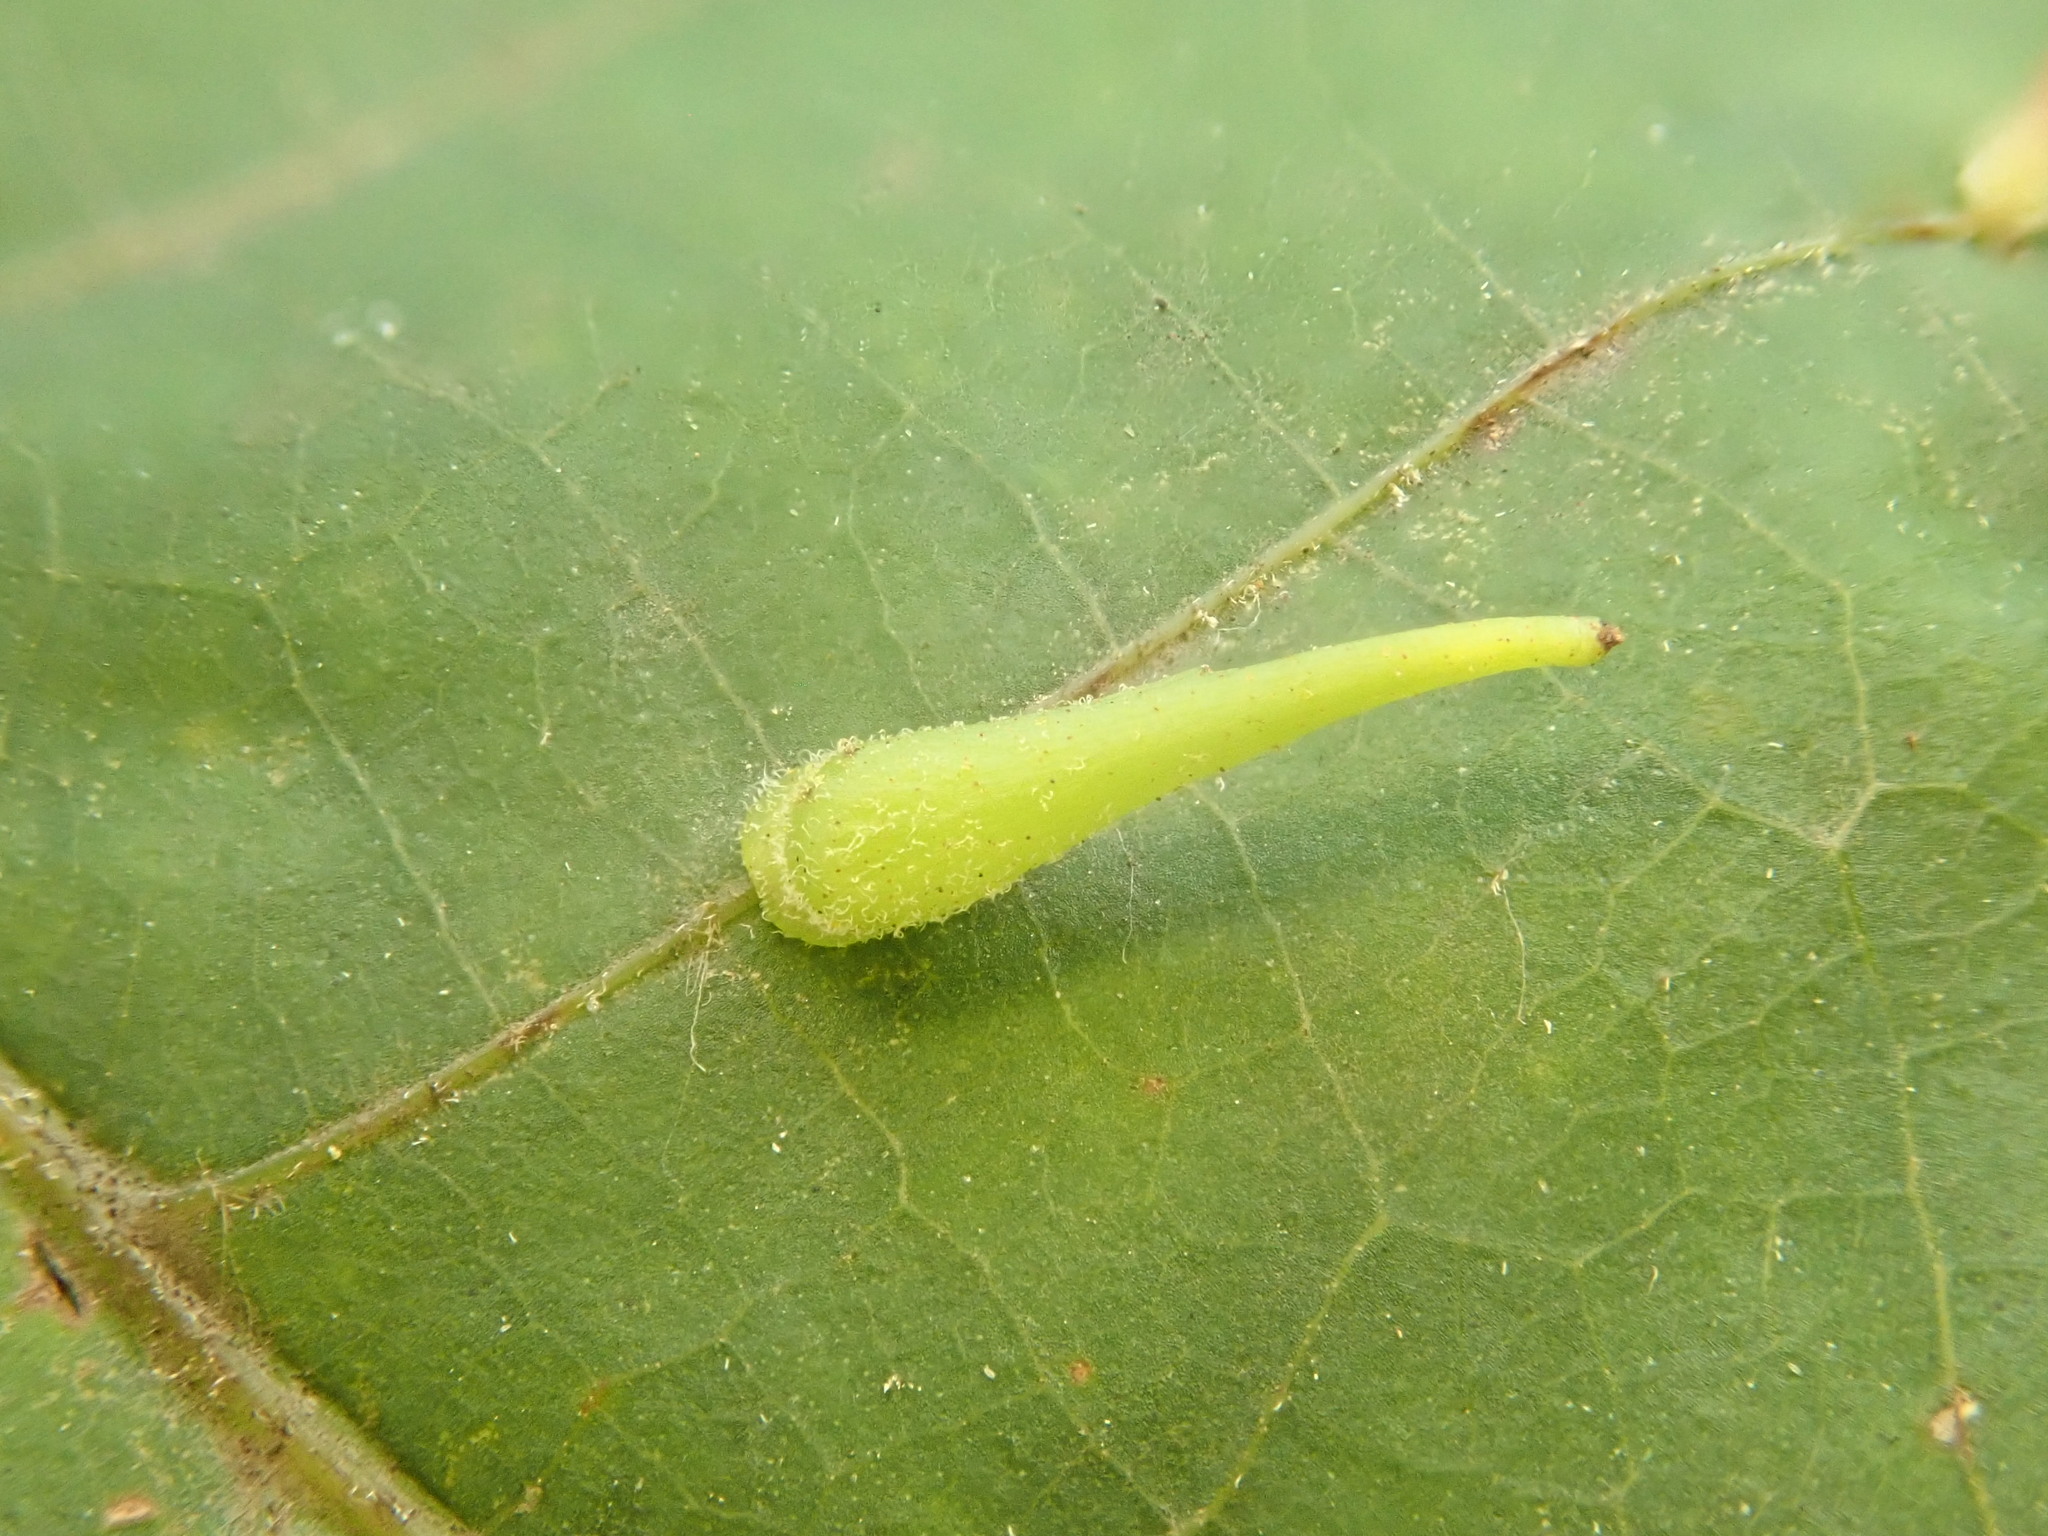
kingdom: Animalia
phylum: Arthropoda
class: Insecta
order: Diptera
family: Cecidomyiidae
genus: Caryomyia
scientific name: Caryomyia spinulosa
